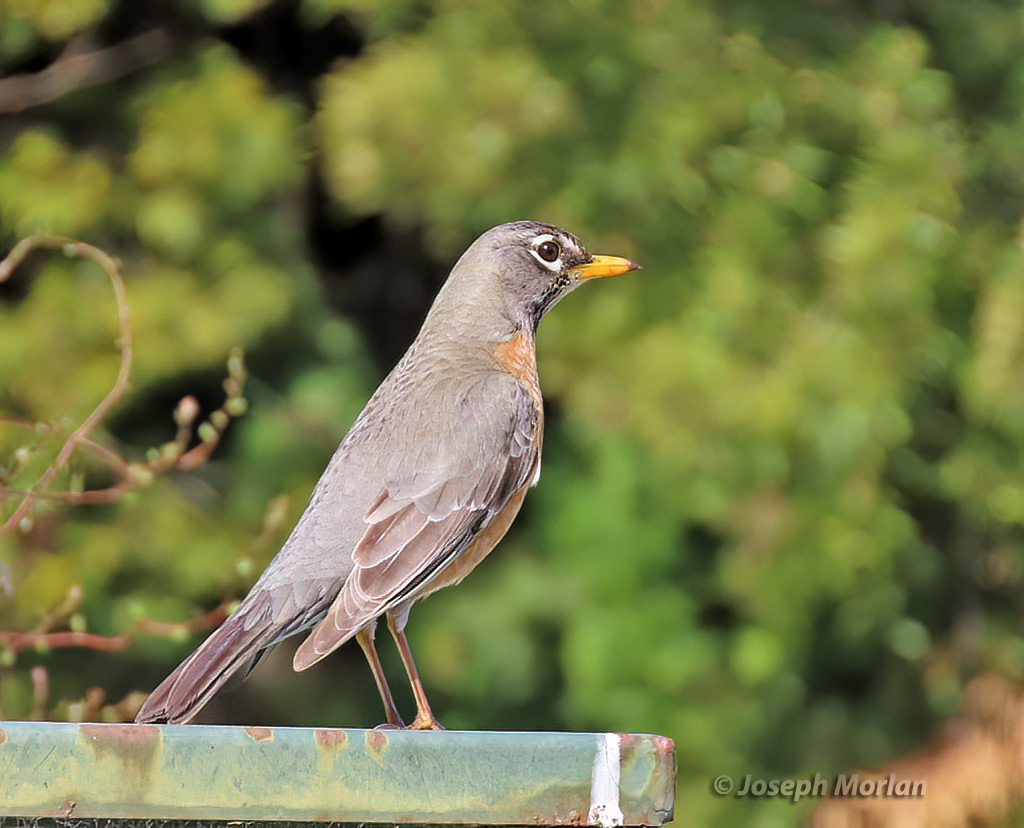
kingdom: Animalia
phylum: Chordata
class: Aves
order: Passeriformes
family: Turdidae
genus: Turdus
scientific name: Turdus migratorius
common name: American robin
